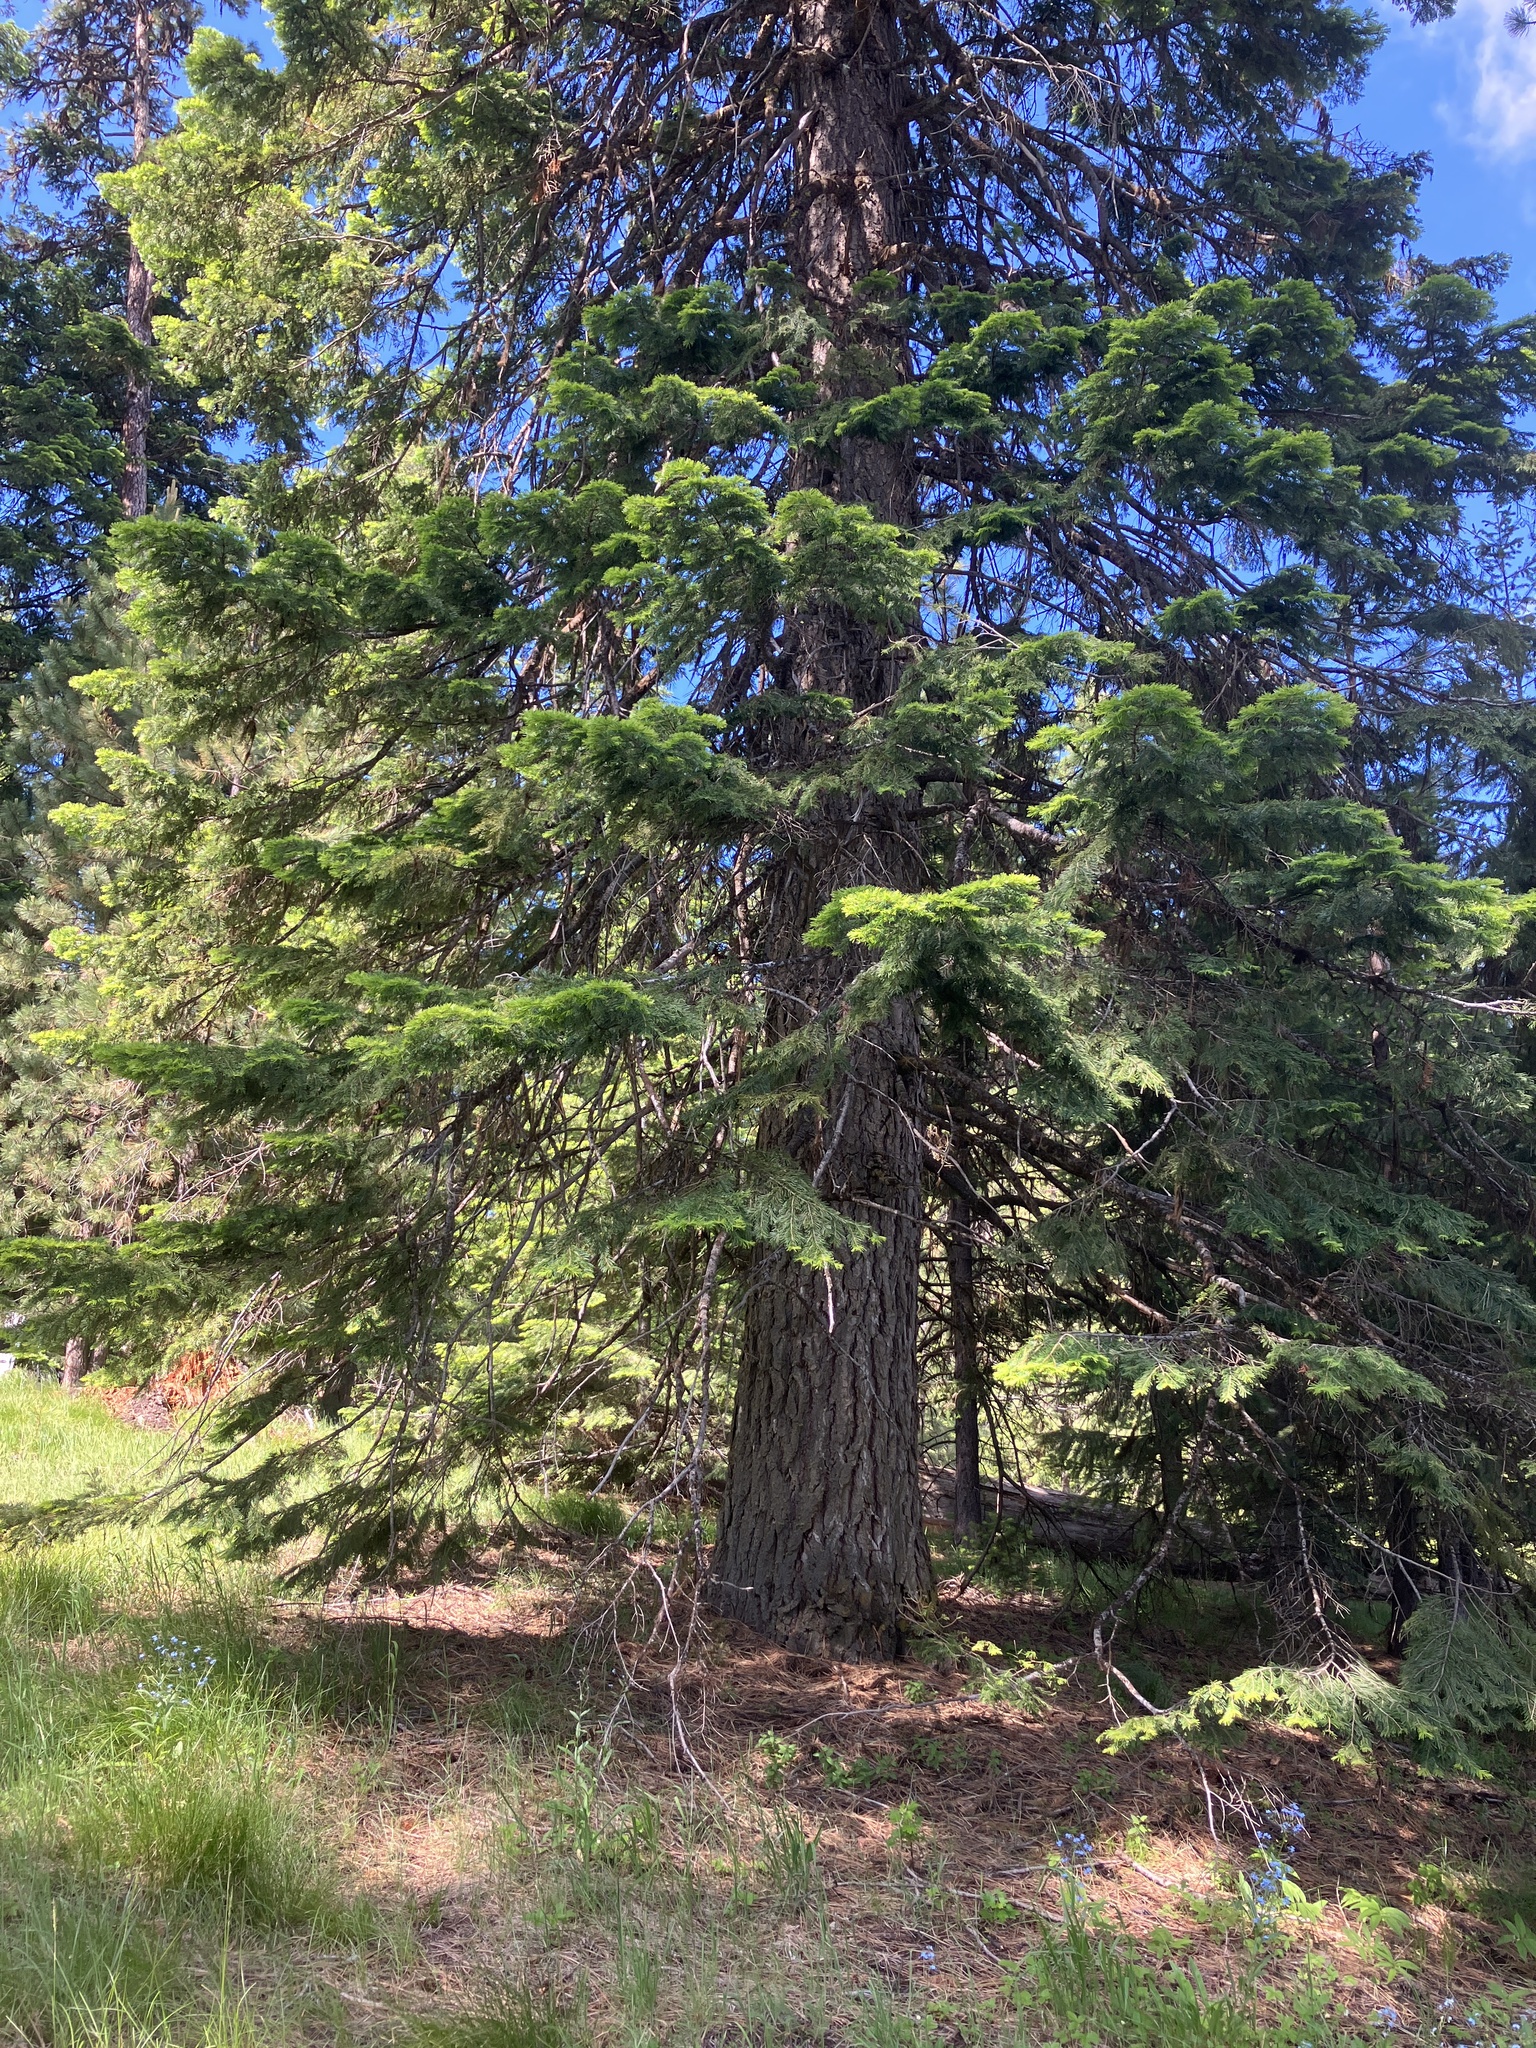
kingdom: Plantae
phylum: Tracheophyta
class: Pinopsida
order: Pinales
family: Pinaceae
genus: Abies
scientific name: Abies concolor
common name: Colorado fir
